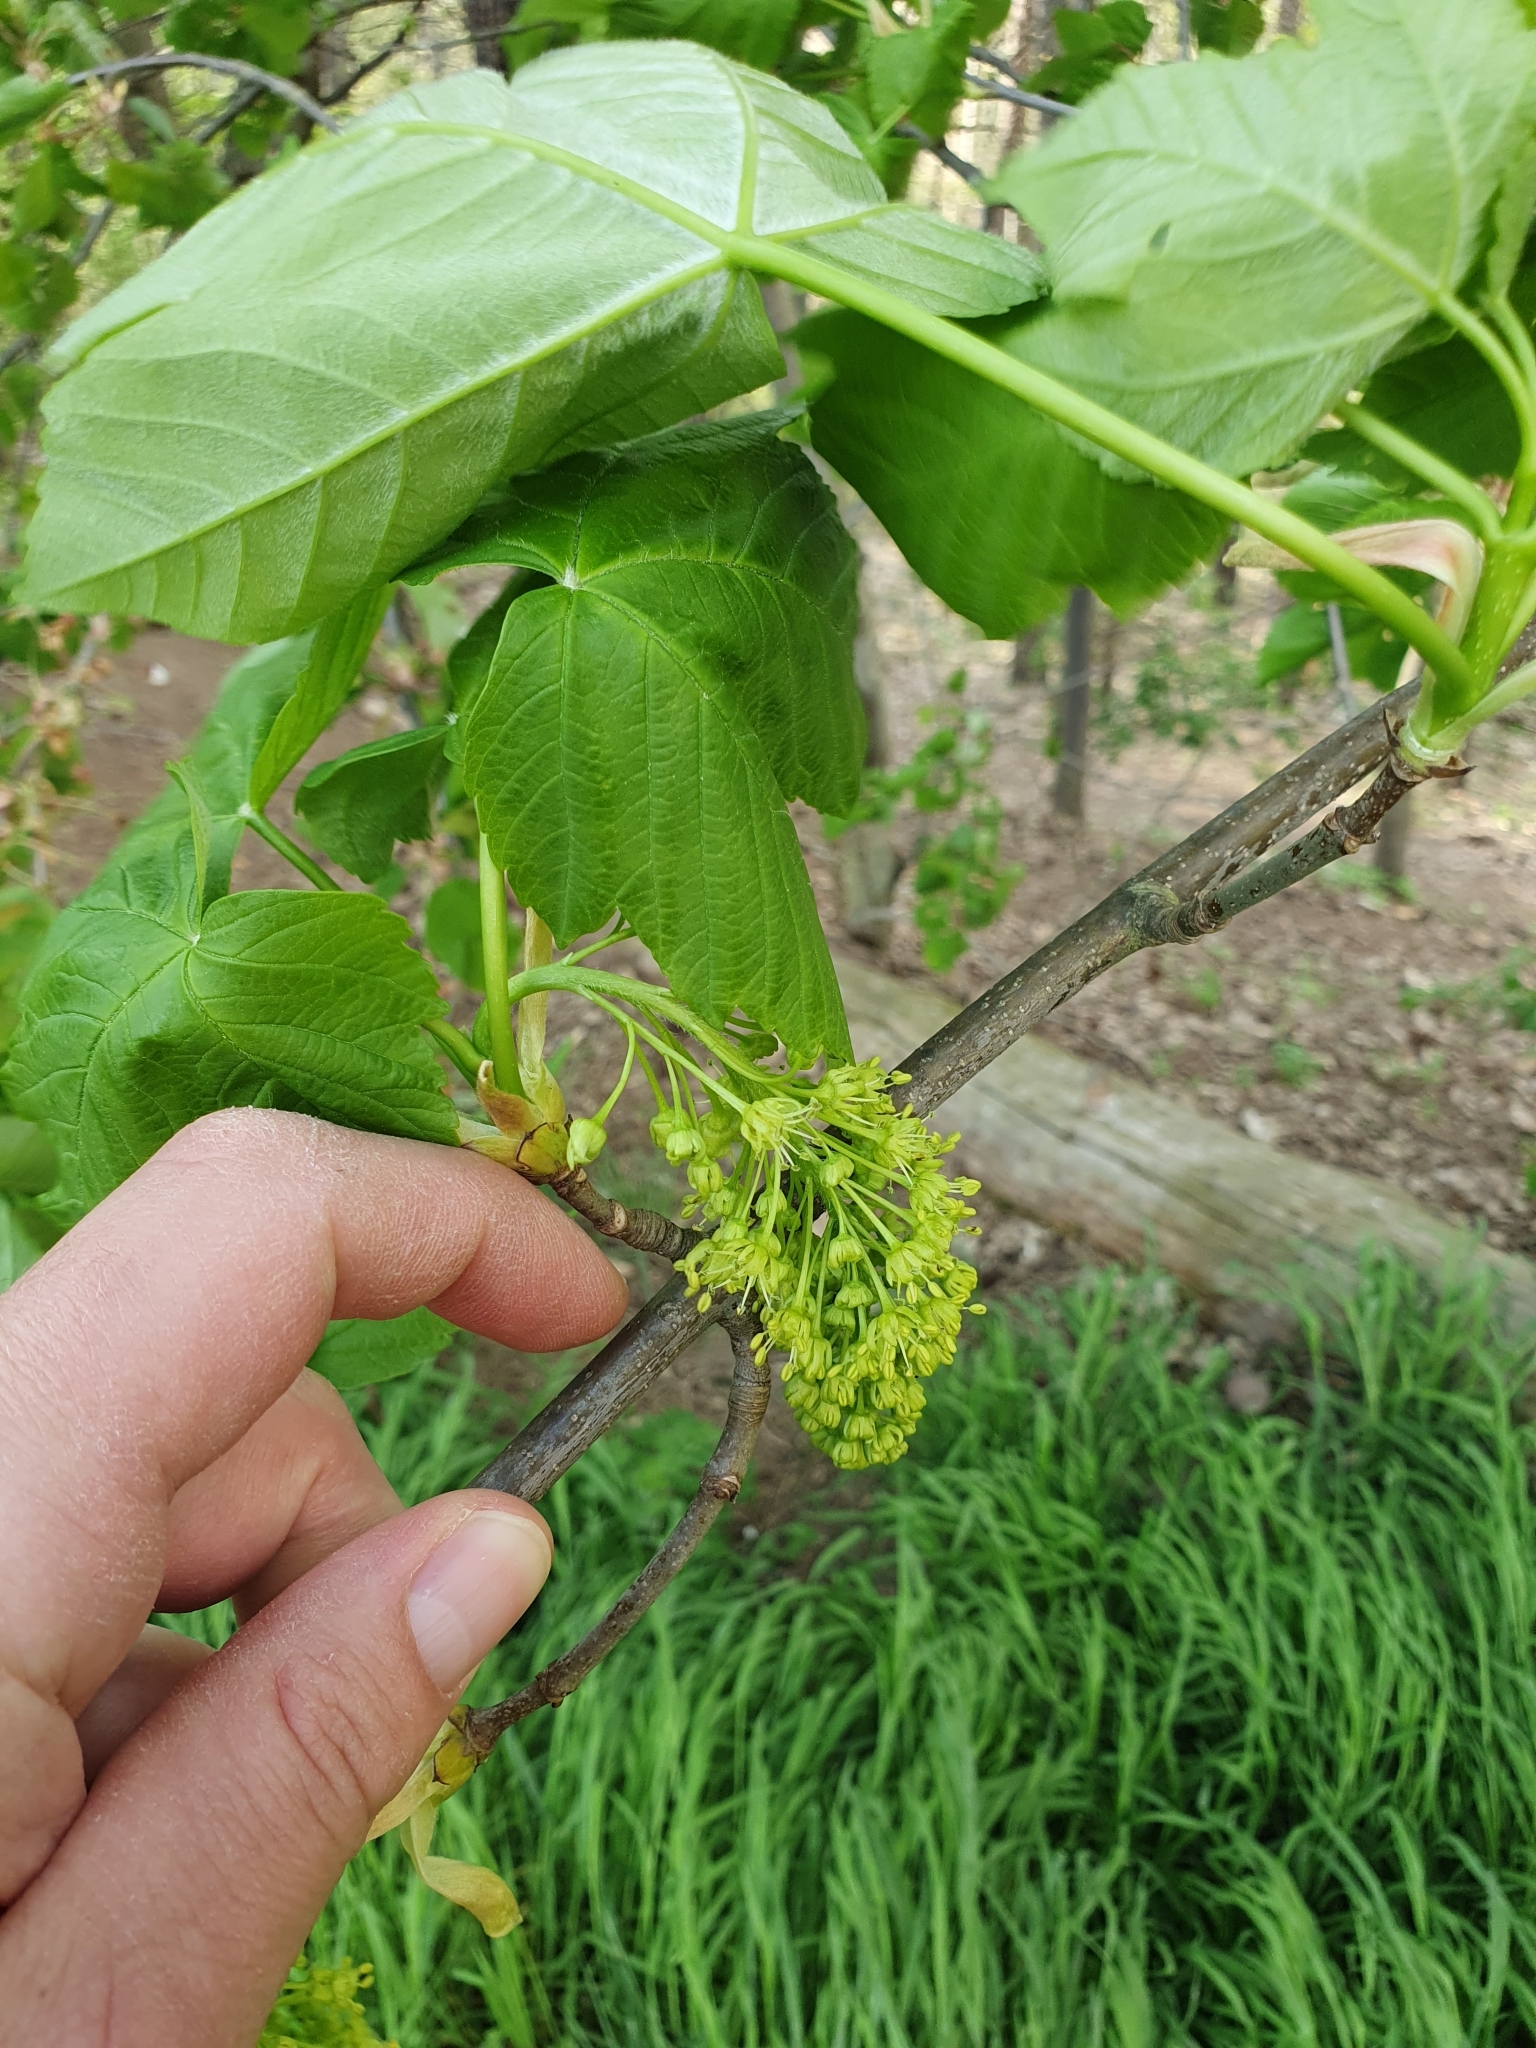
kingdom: Plantae
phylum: Tracheophyta
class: Magnoliopsida
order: Sapindales
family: Sapindaceae
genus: Acer
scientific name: Acer pseudoplatanus
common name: Sycamore
